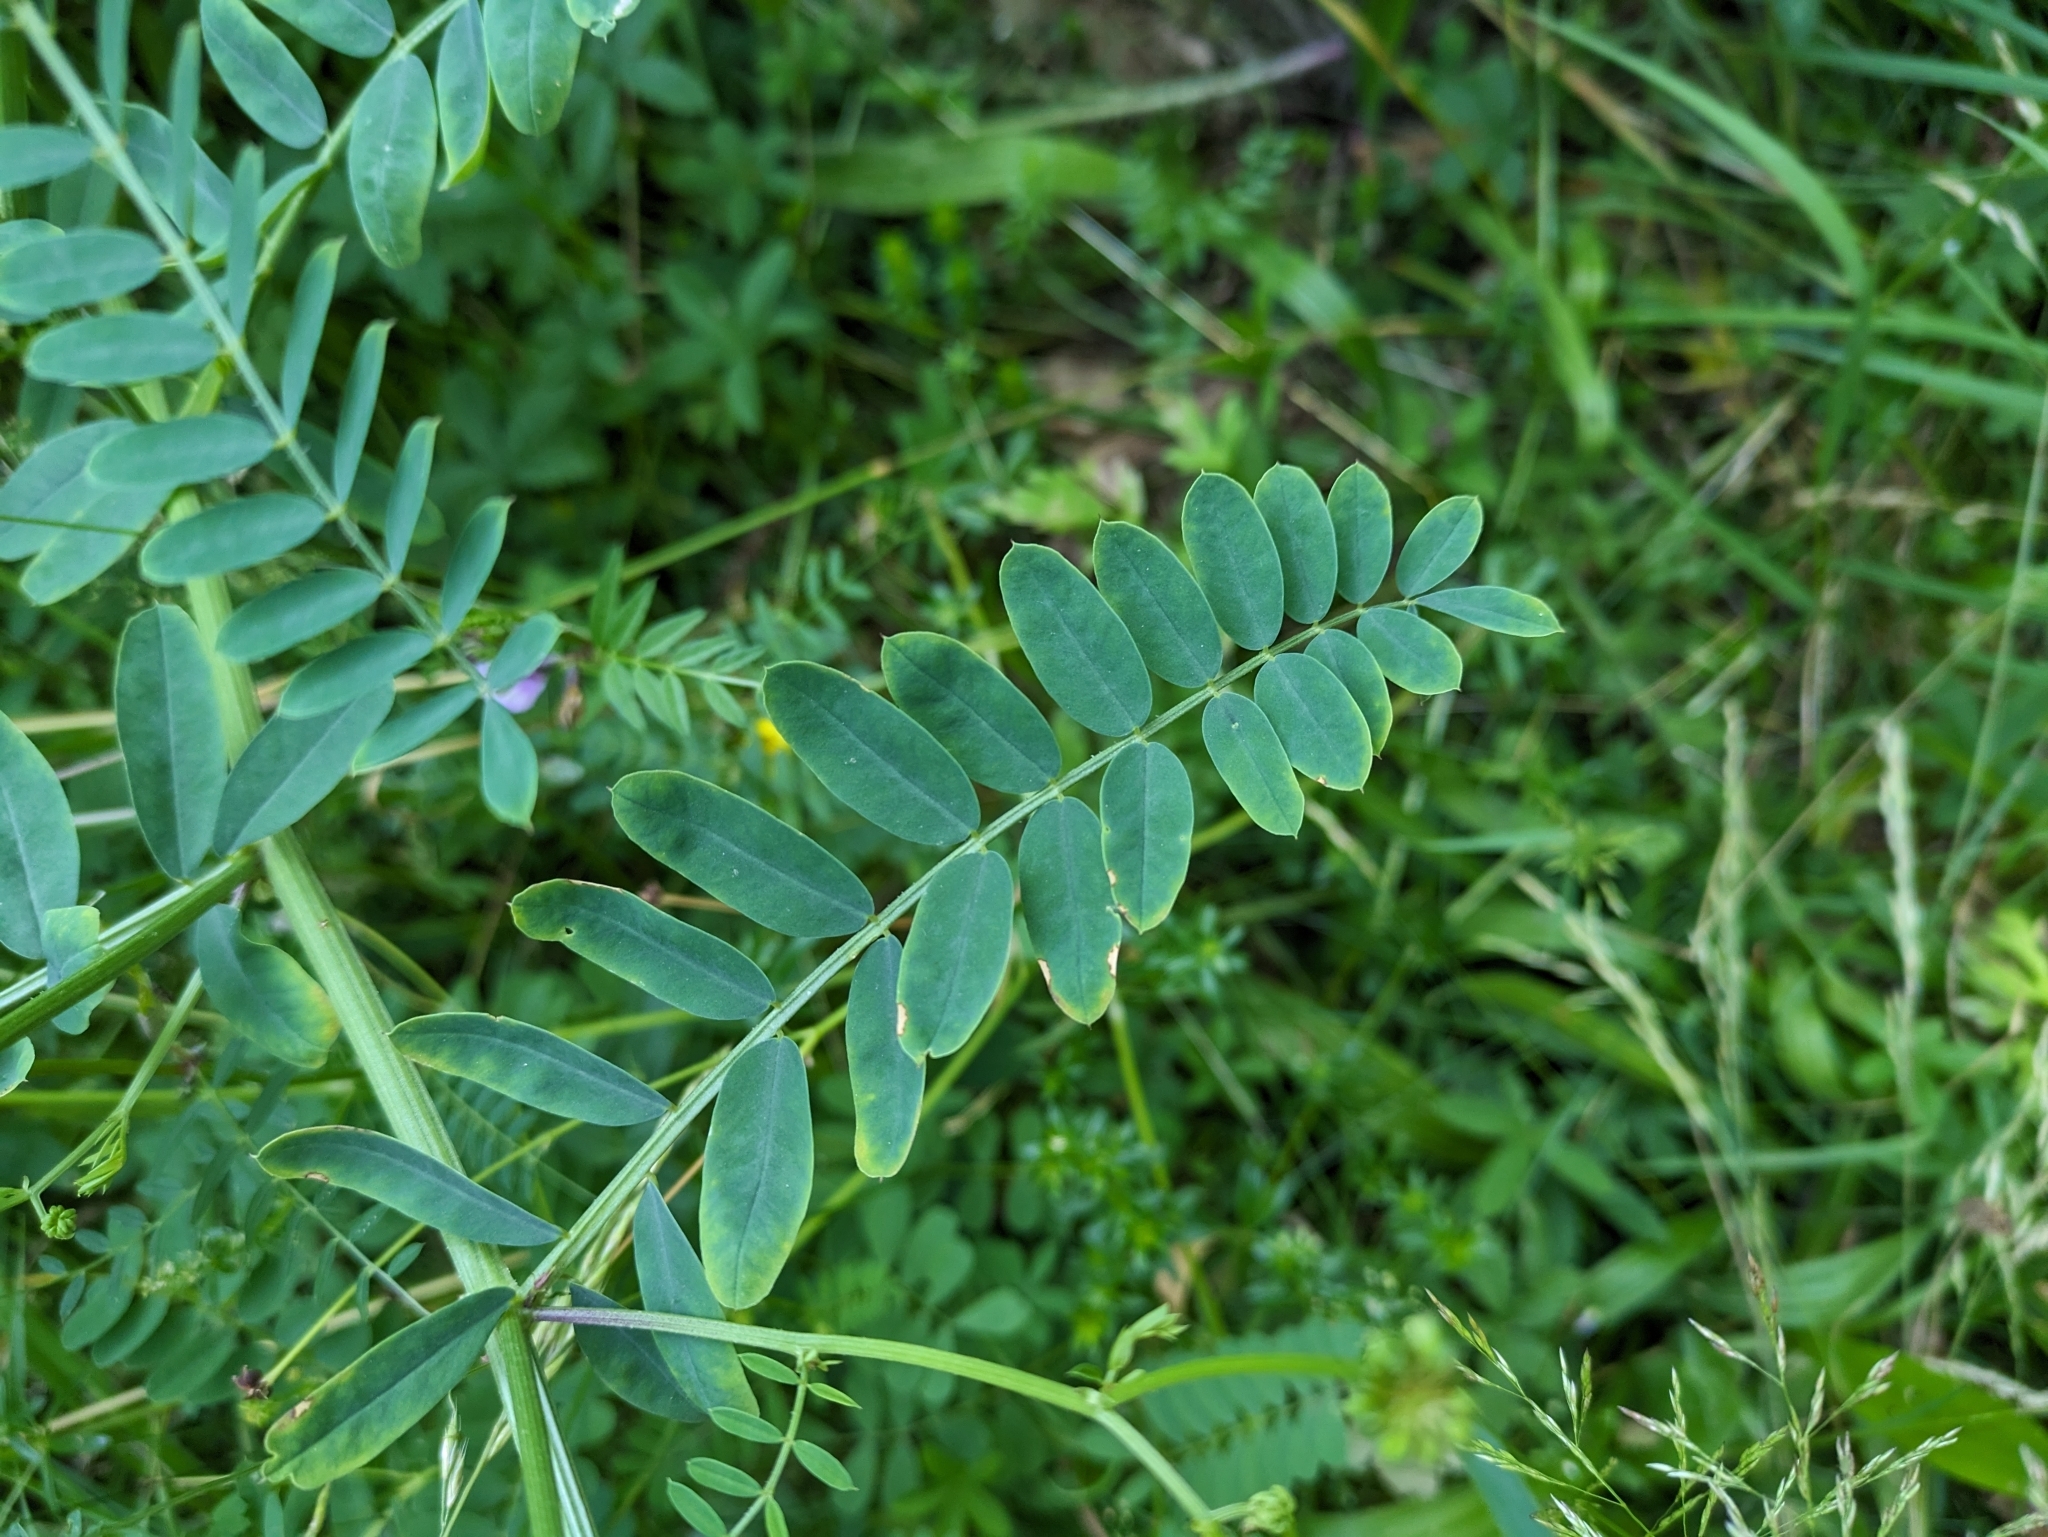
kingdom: Plantae
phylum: Tracheophyta
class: Magnoliopsida
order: Fabales
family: Fabaceae
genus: Coronilla
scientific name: Coronilla varia
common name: Crownvetch
